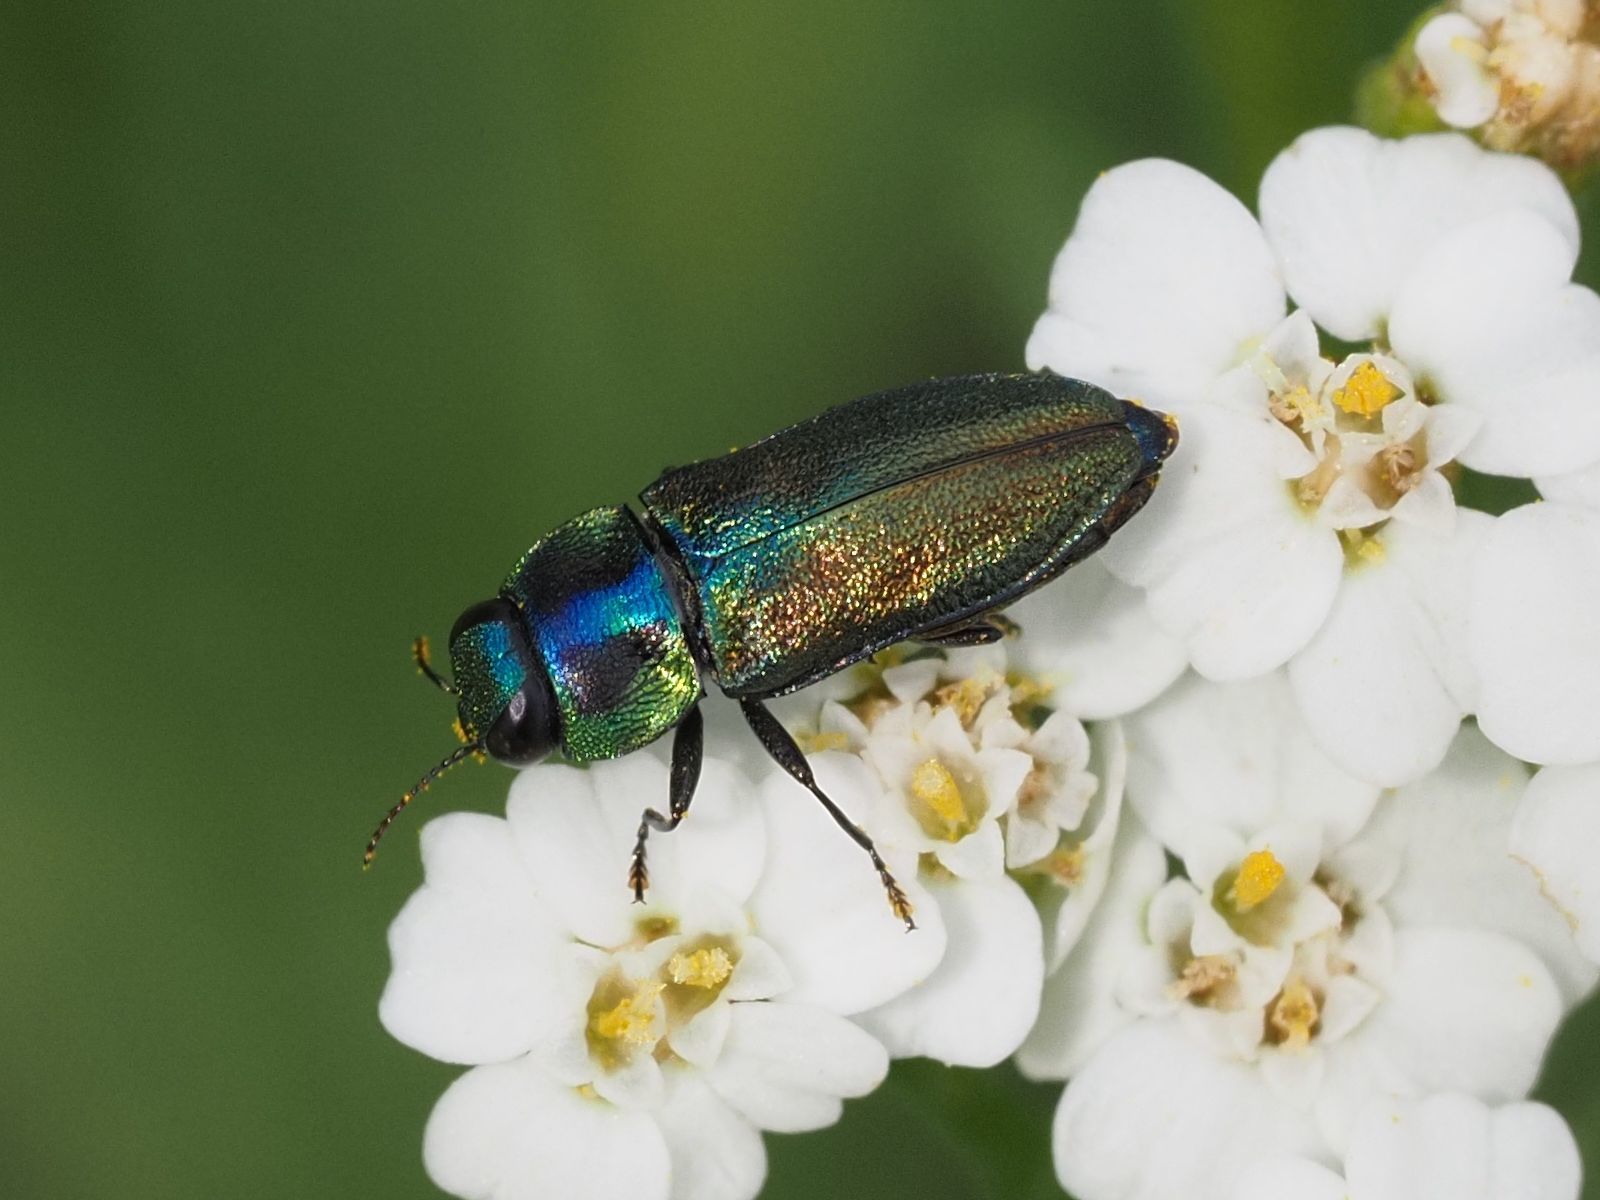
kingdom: Animalia
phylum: Arthropoda
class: Insecta
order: Coleoptera
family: Buprestidae
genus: Anthaxia
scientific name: Anthaxia podolica
